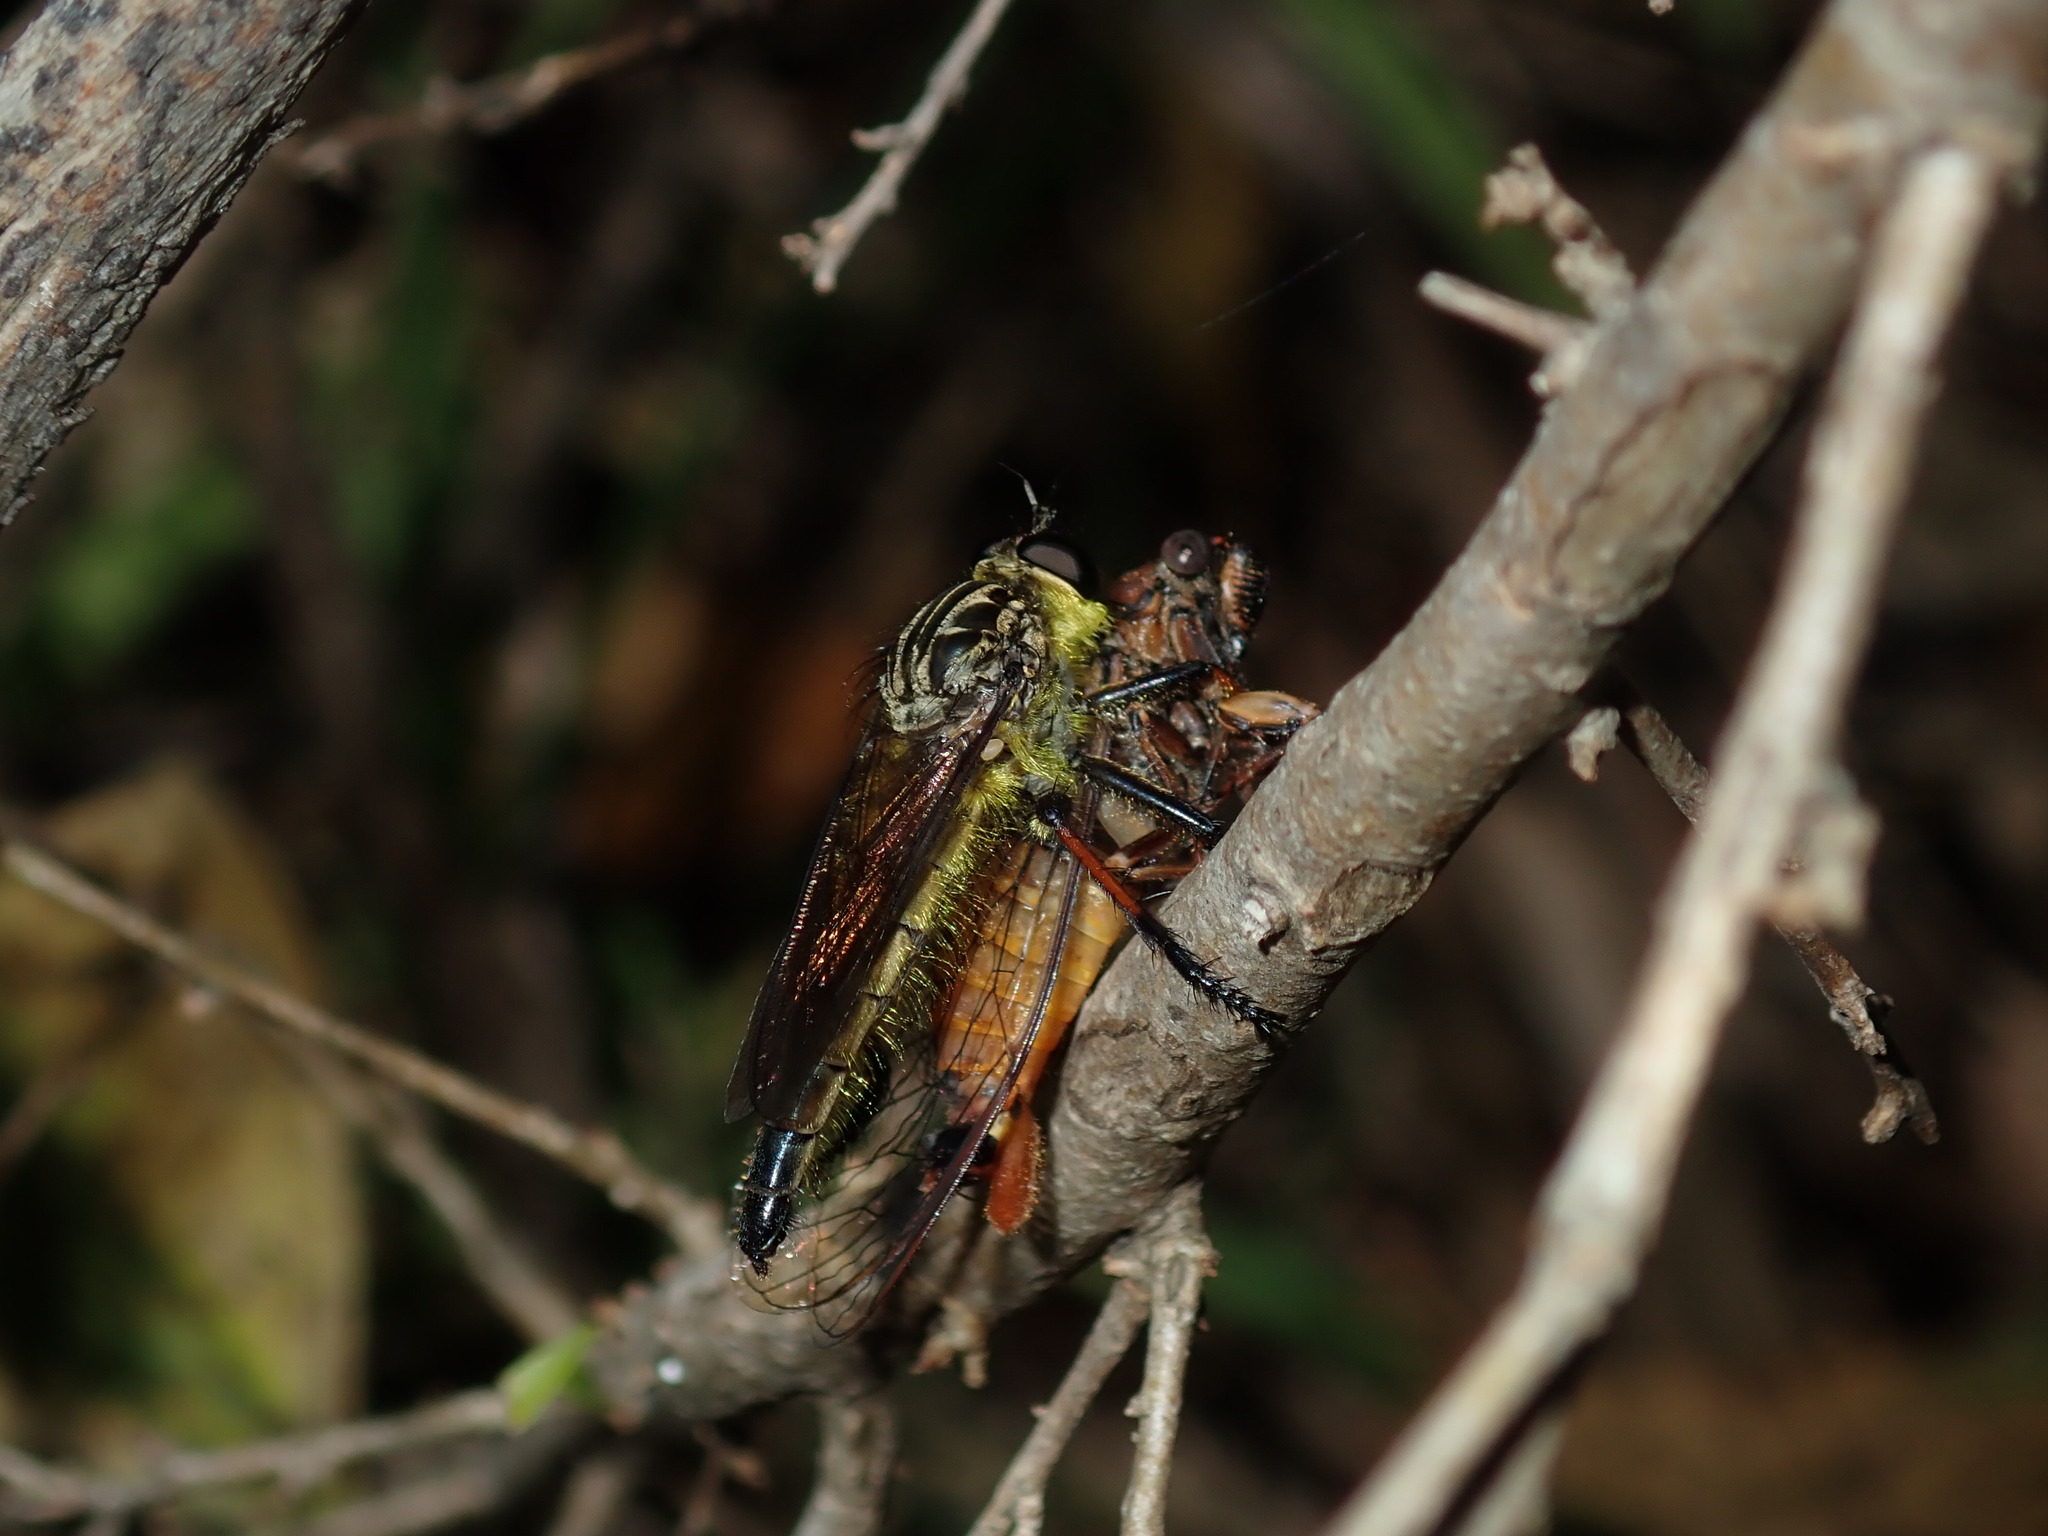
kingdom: Animalia
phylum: Arthropoda
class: Insecta
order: Diptera
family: Asilidae
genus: Zosteria
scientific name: Zosteria rosevillensis
